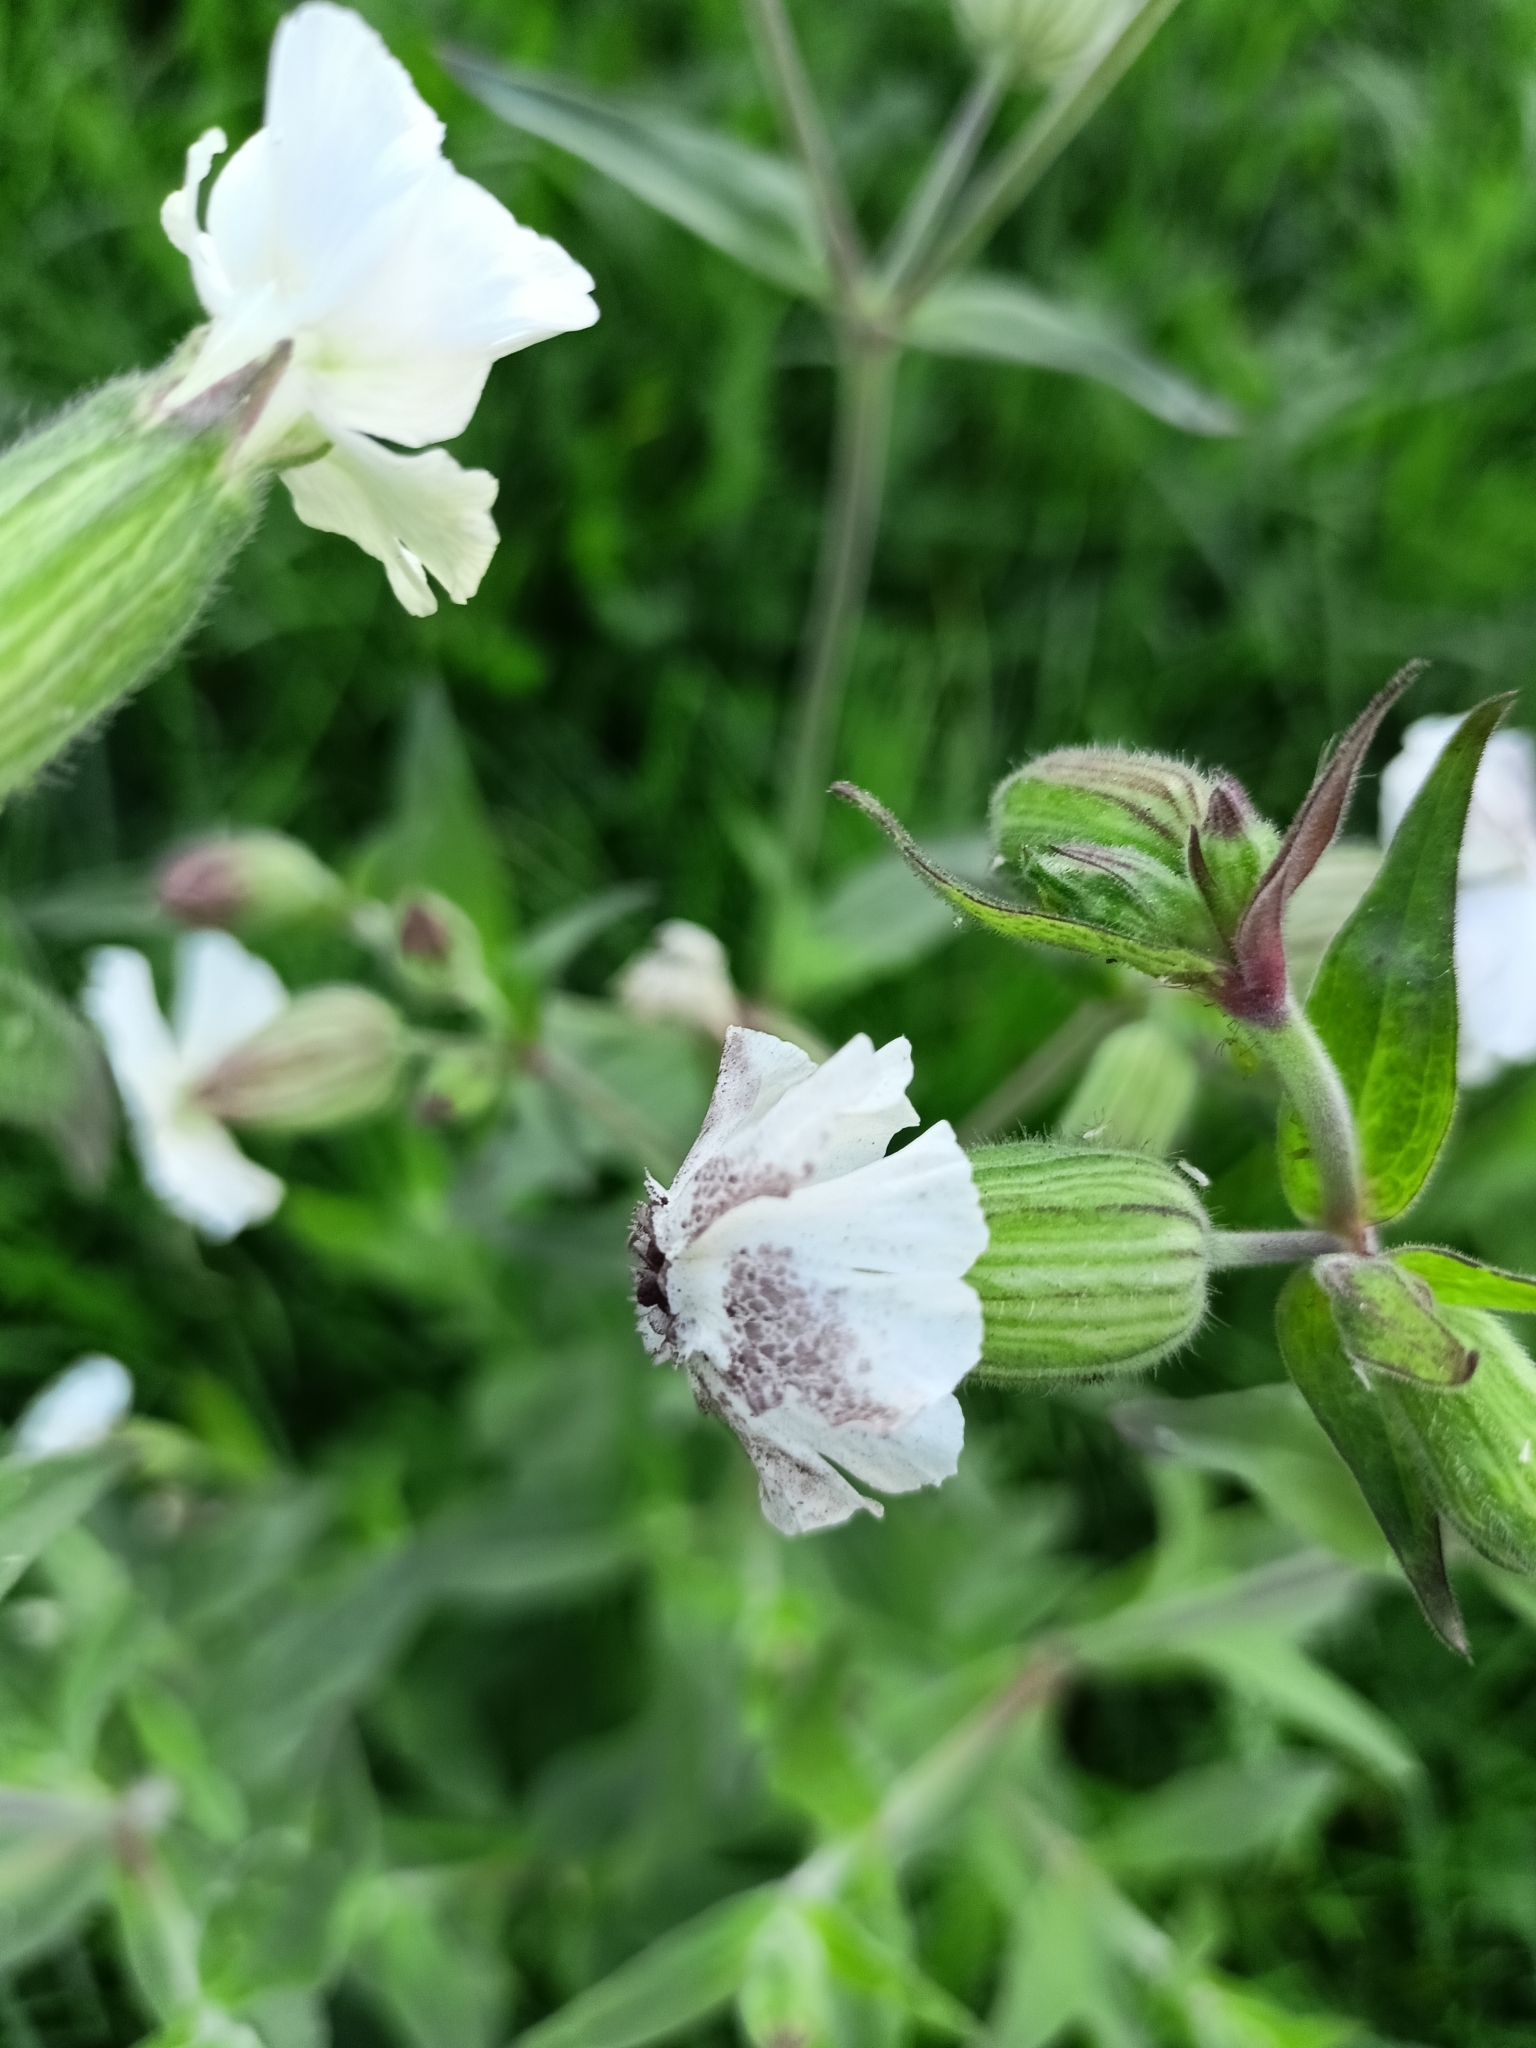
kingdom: Plantae
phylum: Tracheophyta
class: Magnoliopsida
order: Caryophyllales
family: Caryophyllaceae
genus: Silene
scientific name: Silene latifolia
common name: White campion
